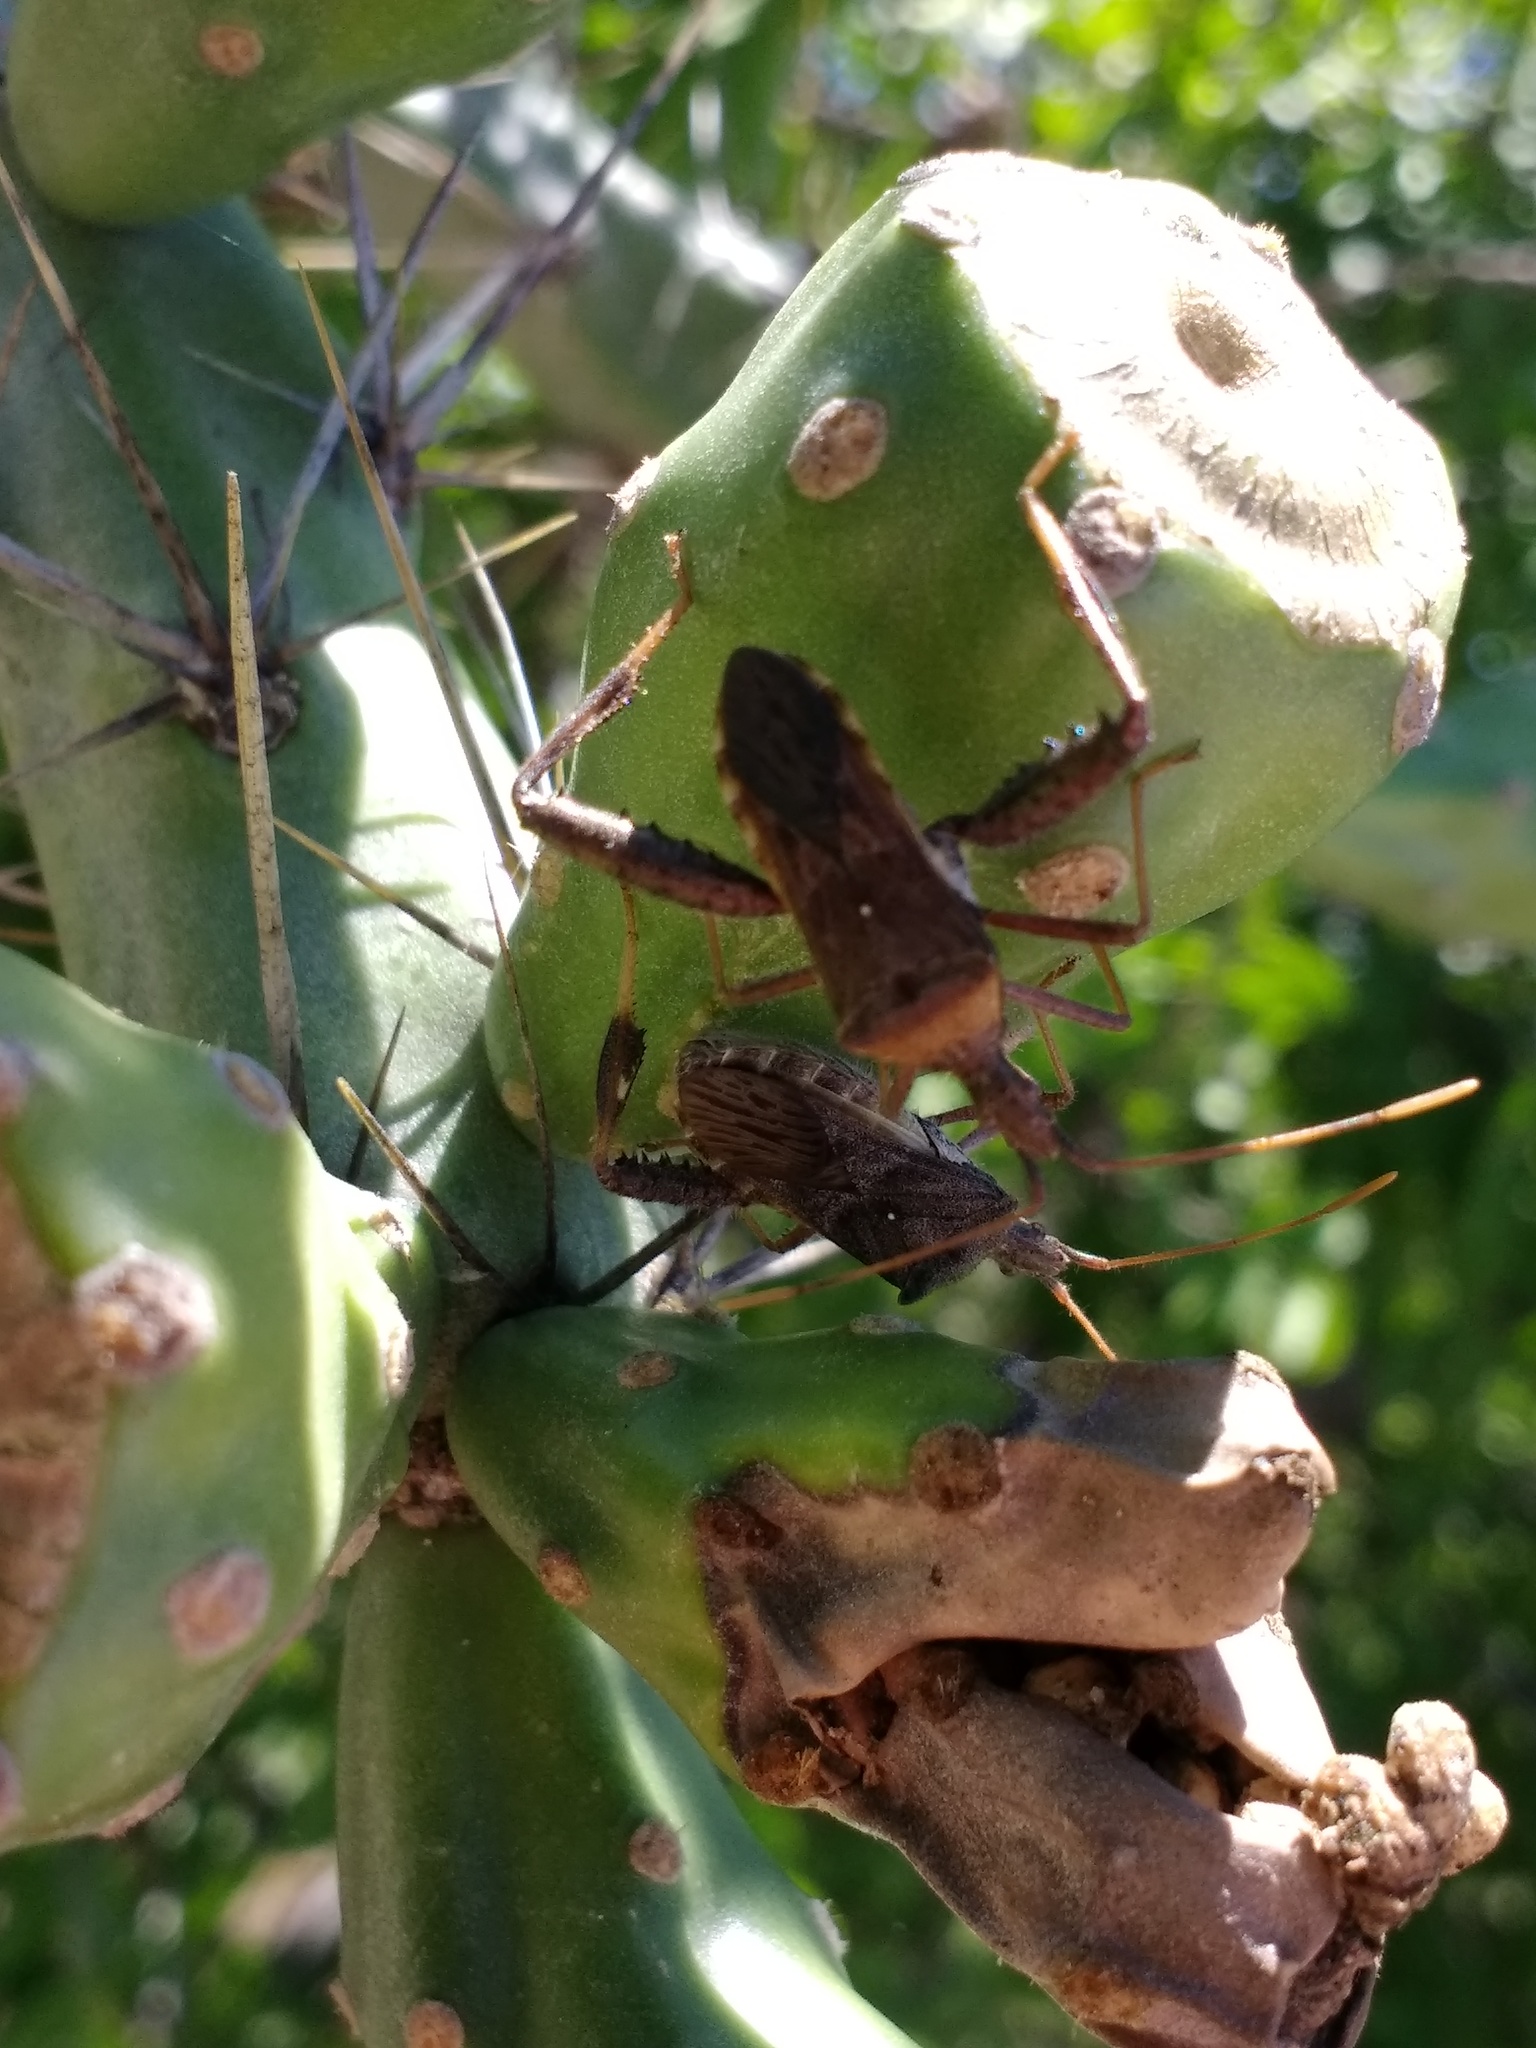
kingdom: Animalia
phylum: Arthropoda
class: Insecta
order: Hemiptera
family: Coreidae
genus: Narnia
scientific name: Narnia inornata
